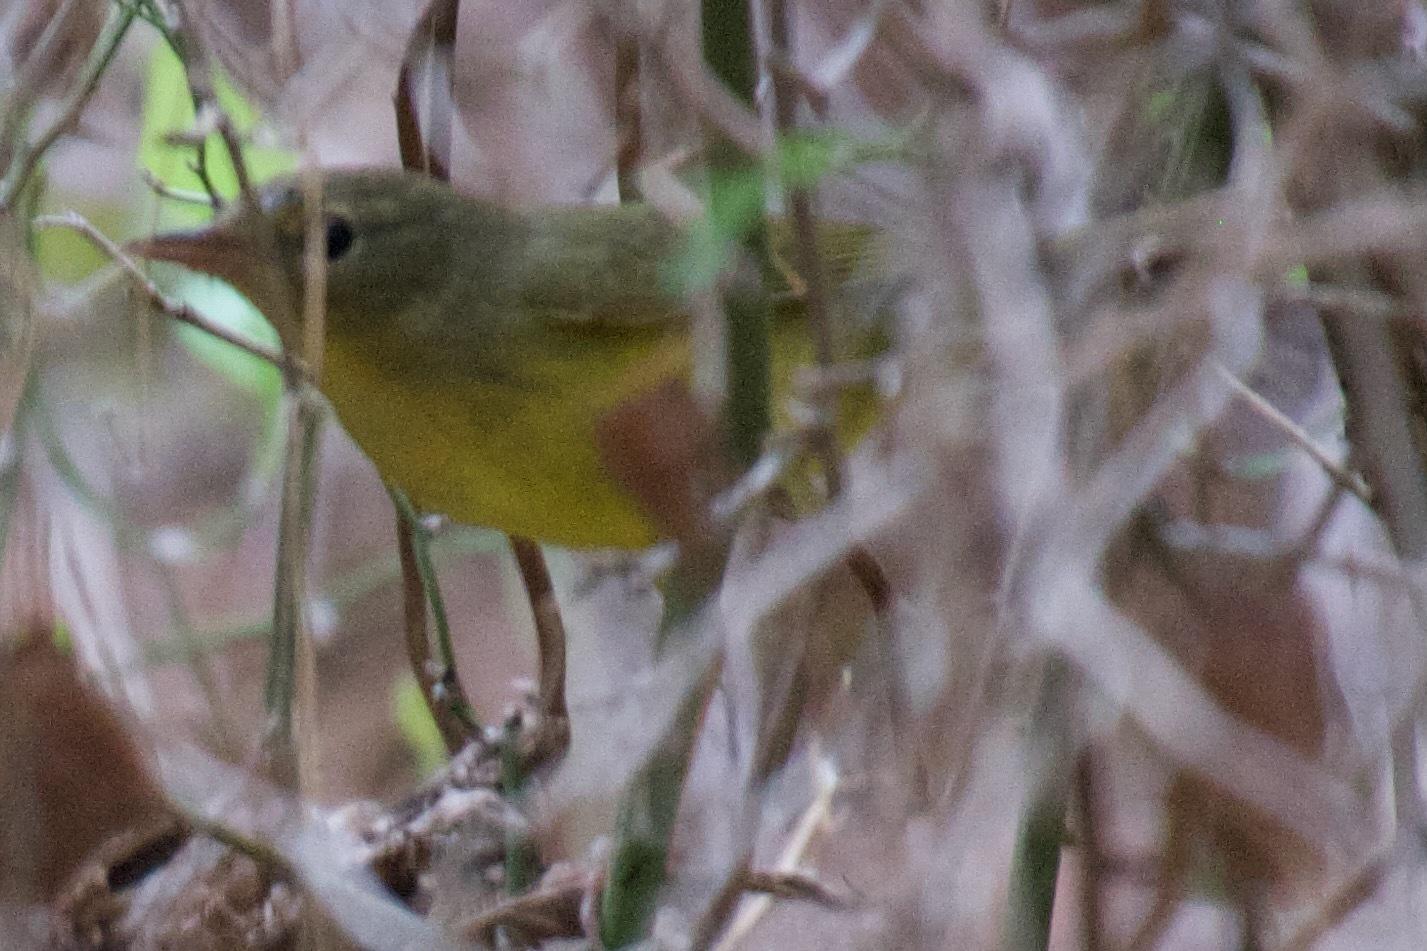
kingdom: Animalia
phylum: Chordata
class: Aves
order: Passeriformes
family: Parulidae
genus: Geothlypis
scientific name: Geothlypis philadelphia
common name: Mourning warbler
